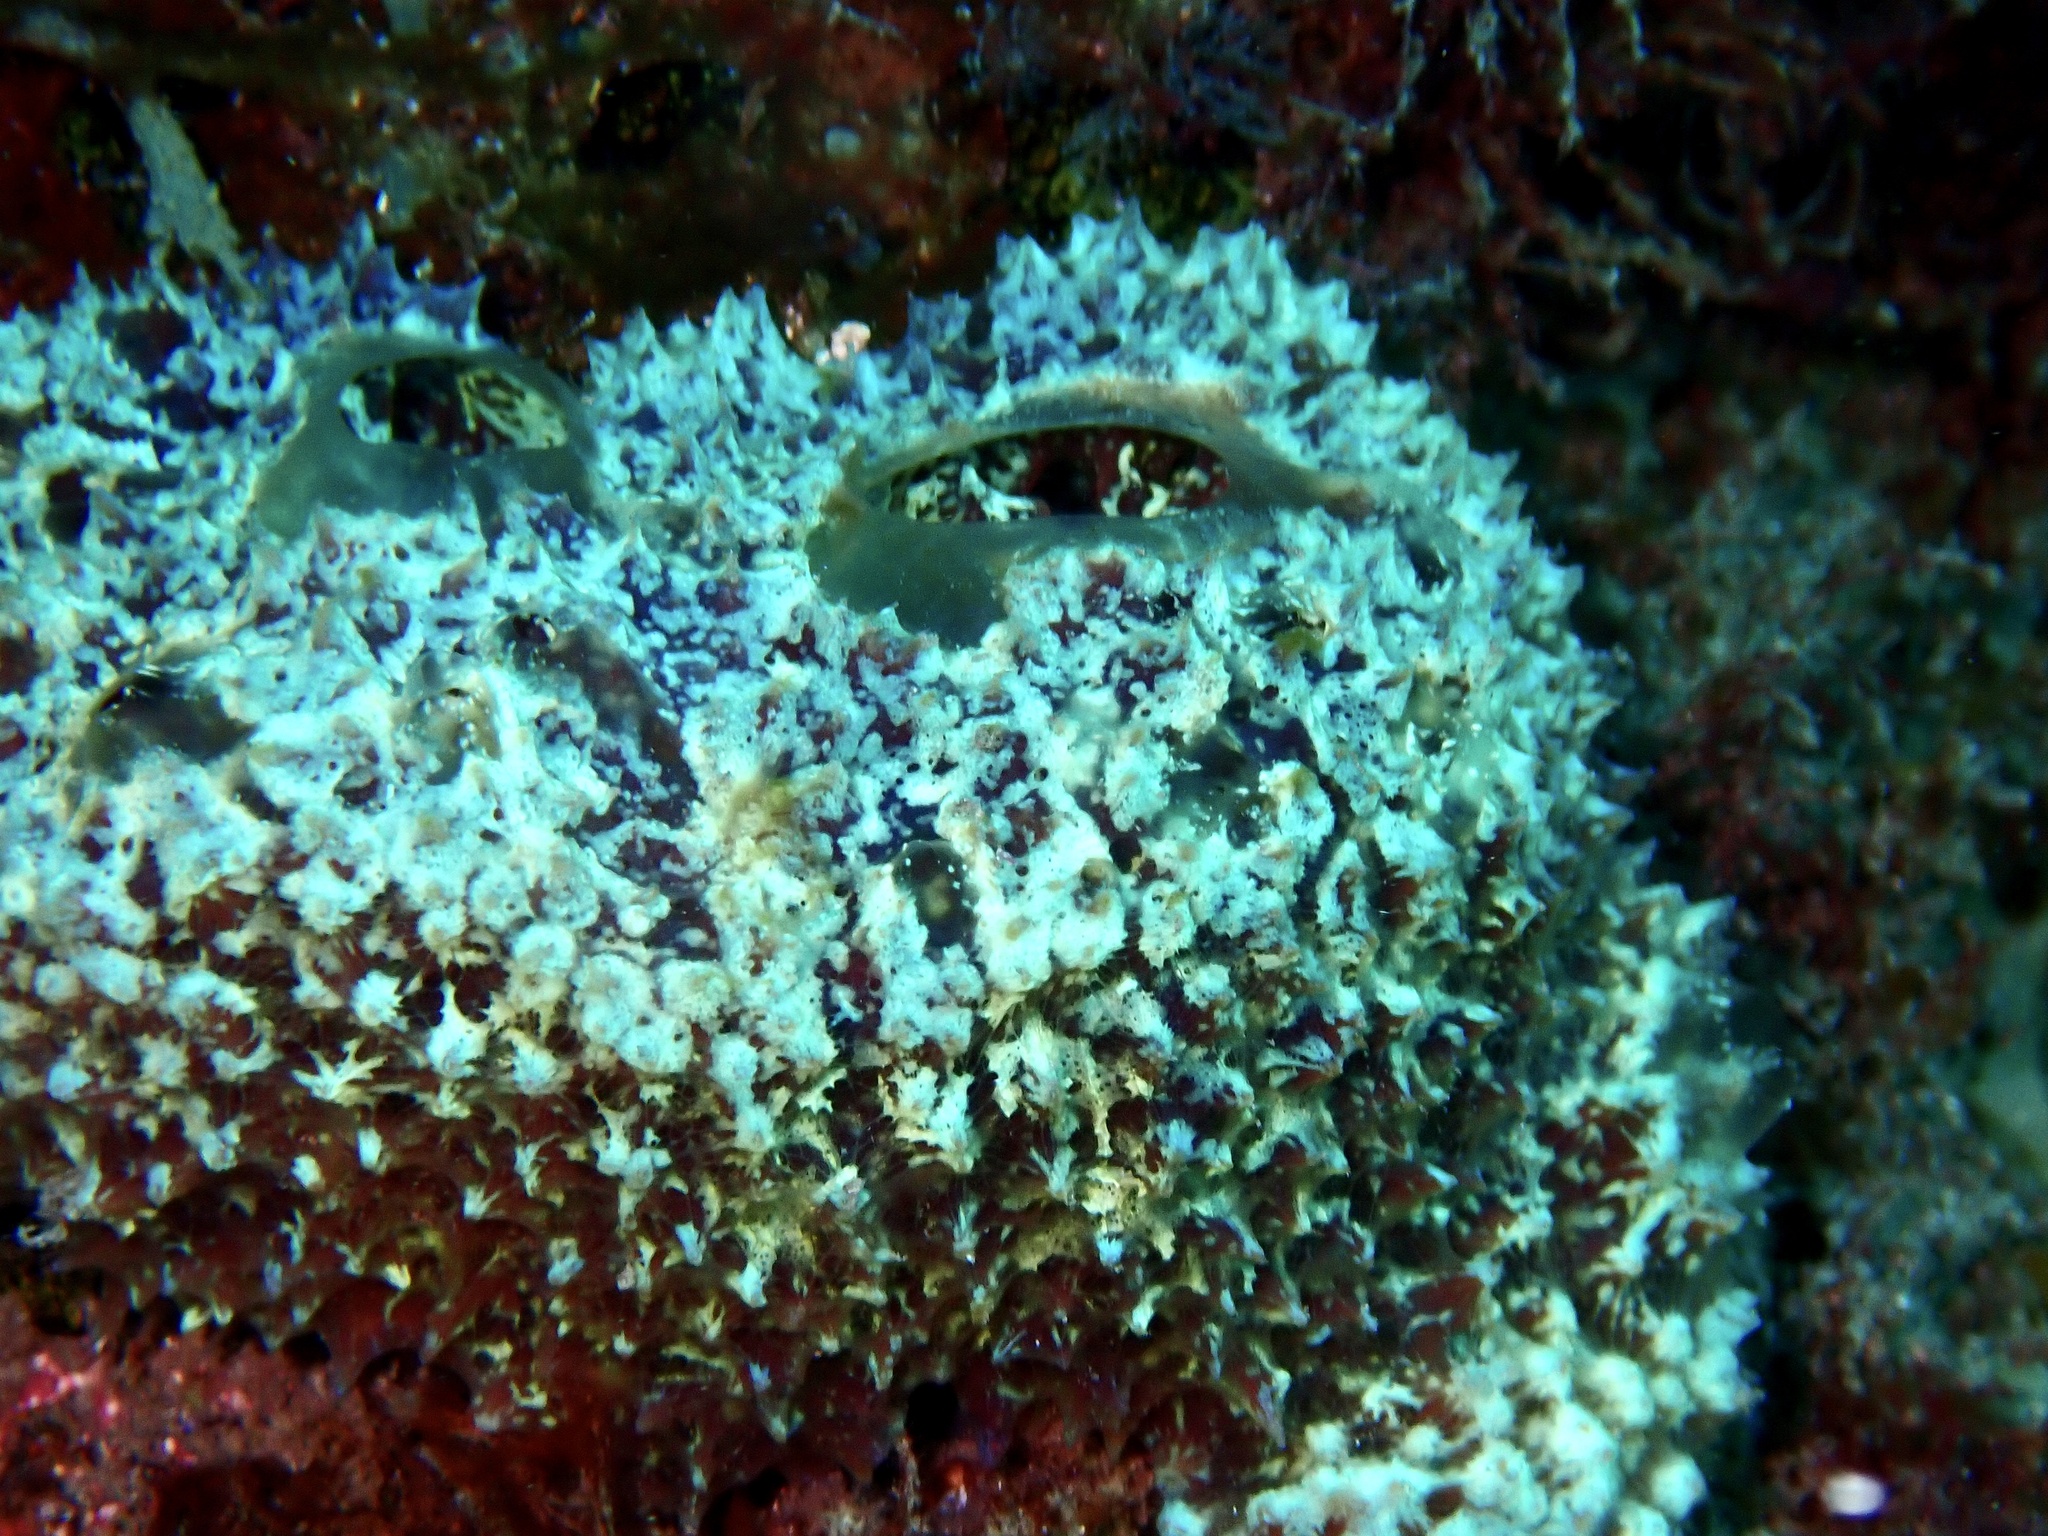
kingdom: Animalia
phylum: Porifera
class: Demospongiae
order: Poecilosclerida
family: Mycalidae
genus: Mycale
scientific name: Mycale laxissima
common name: Strawberry vase sponge
